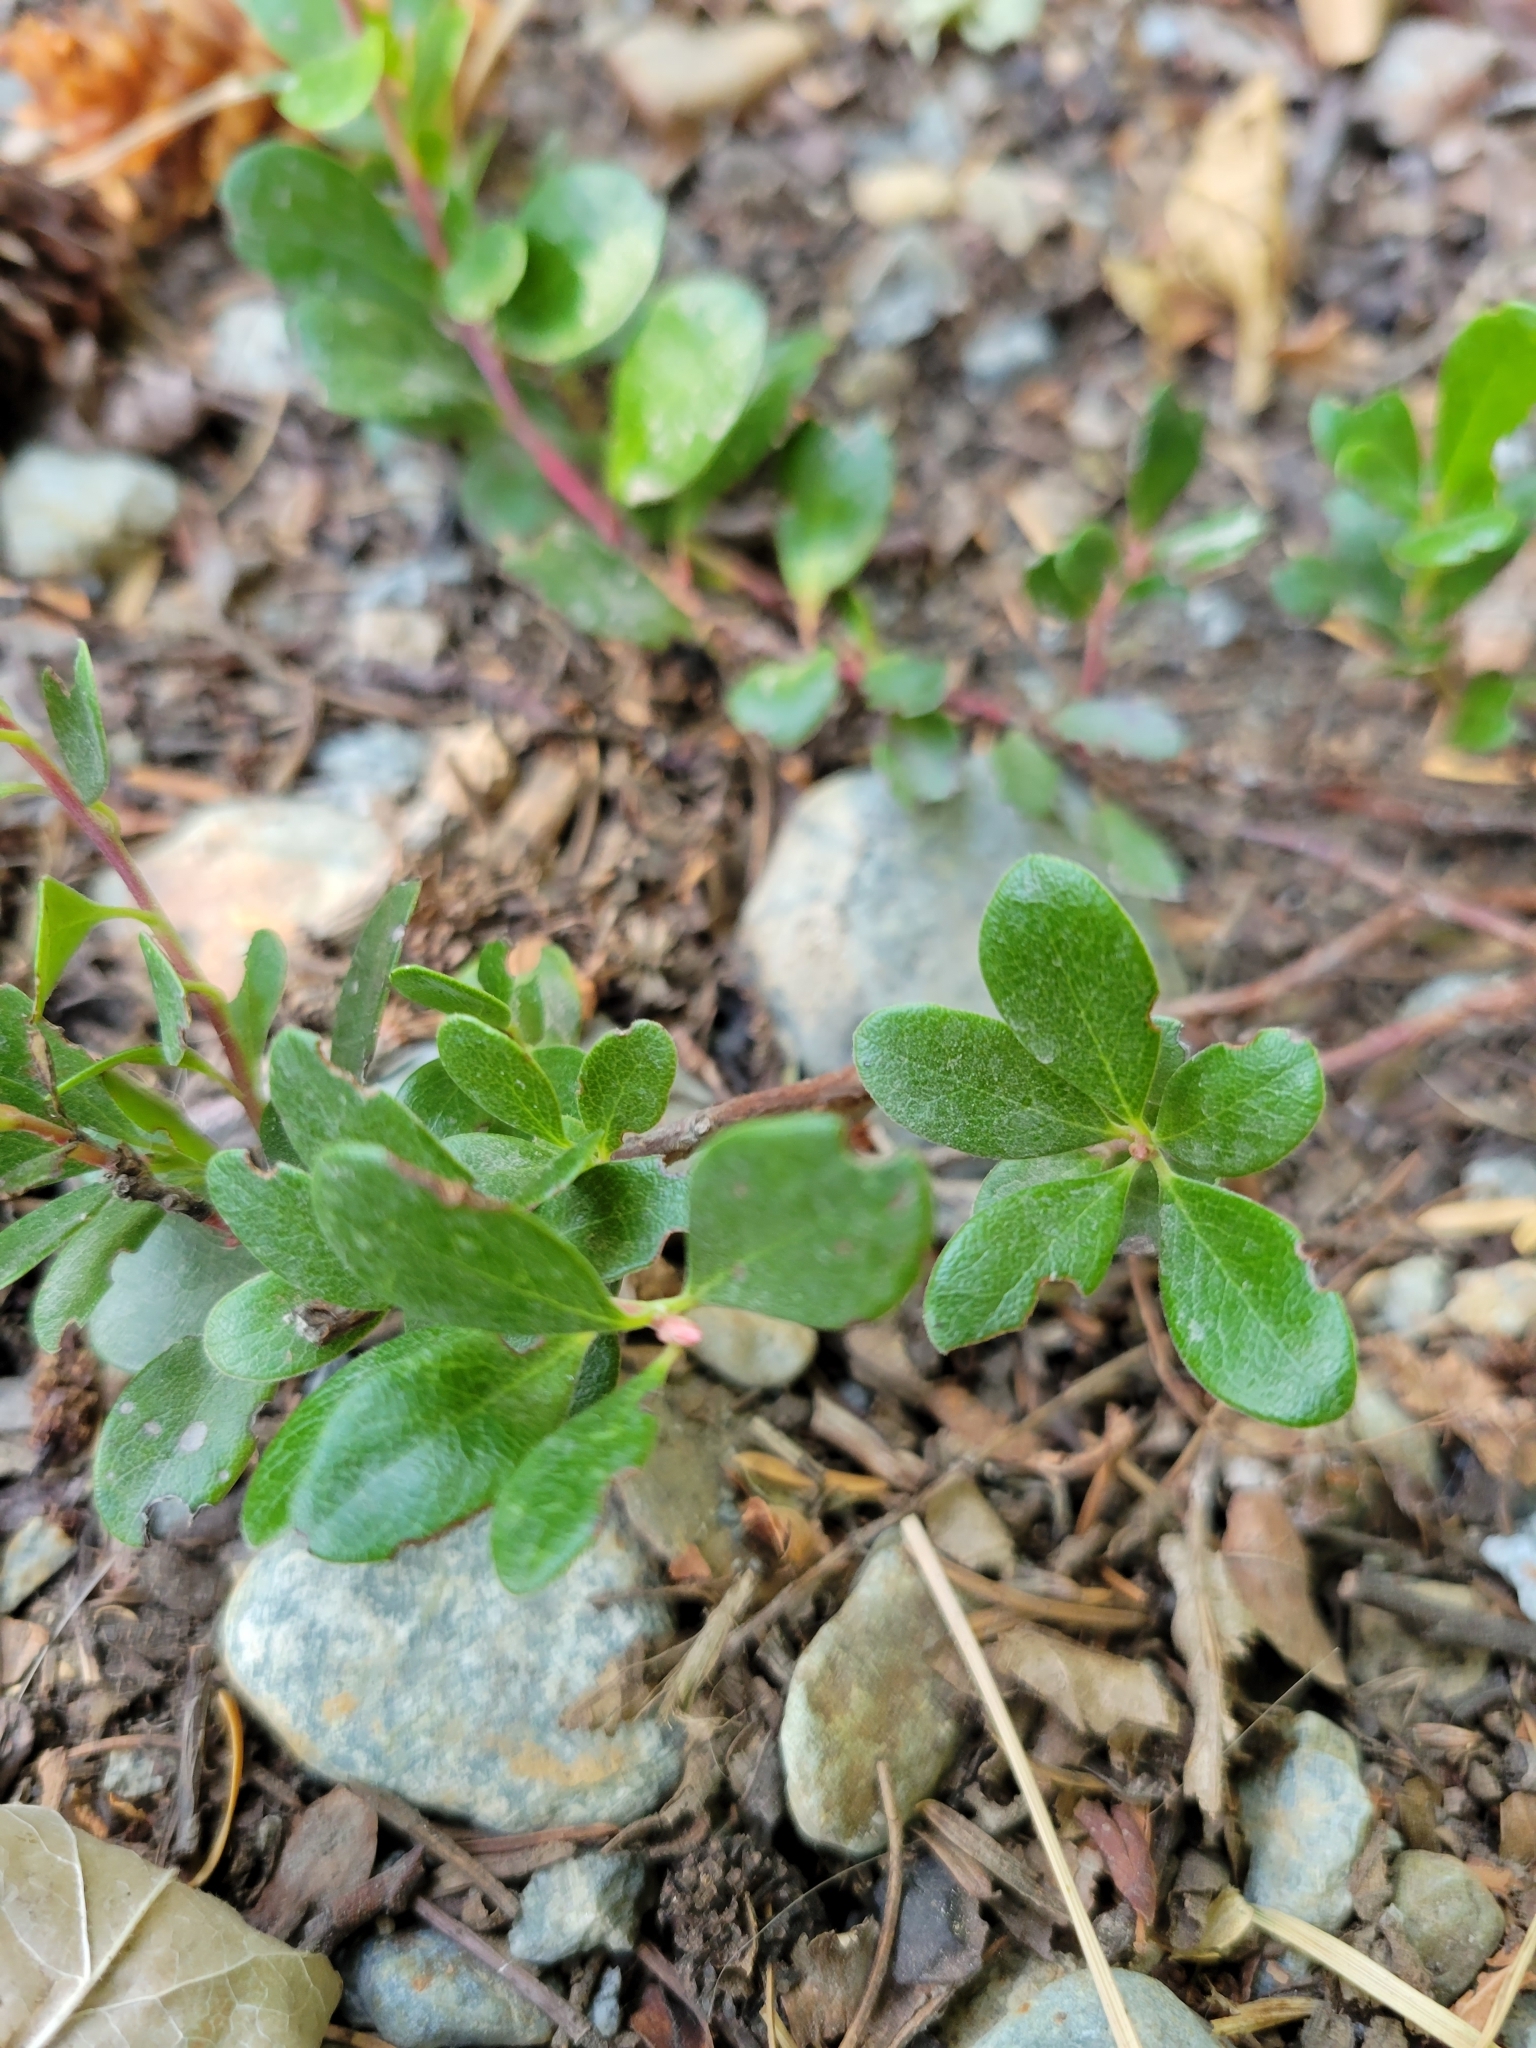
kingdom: Plantae
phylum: Tracheophyta
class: Magnoliopsida
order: Ericales
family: Ericaceae
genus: Arctostaphylos
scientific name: Arctostaphylos uva-ursi
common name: Bearberry
